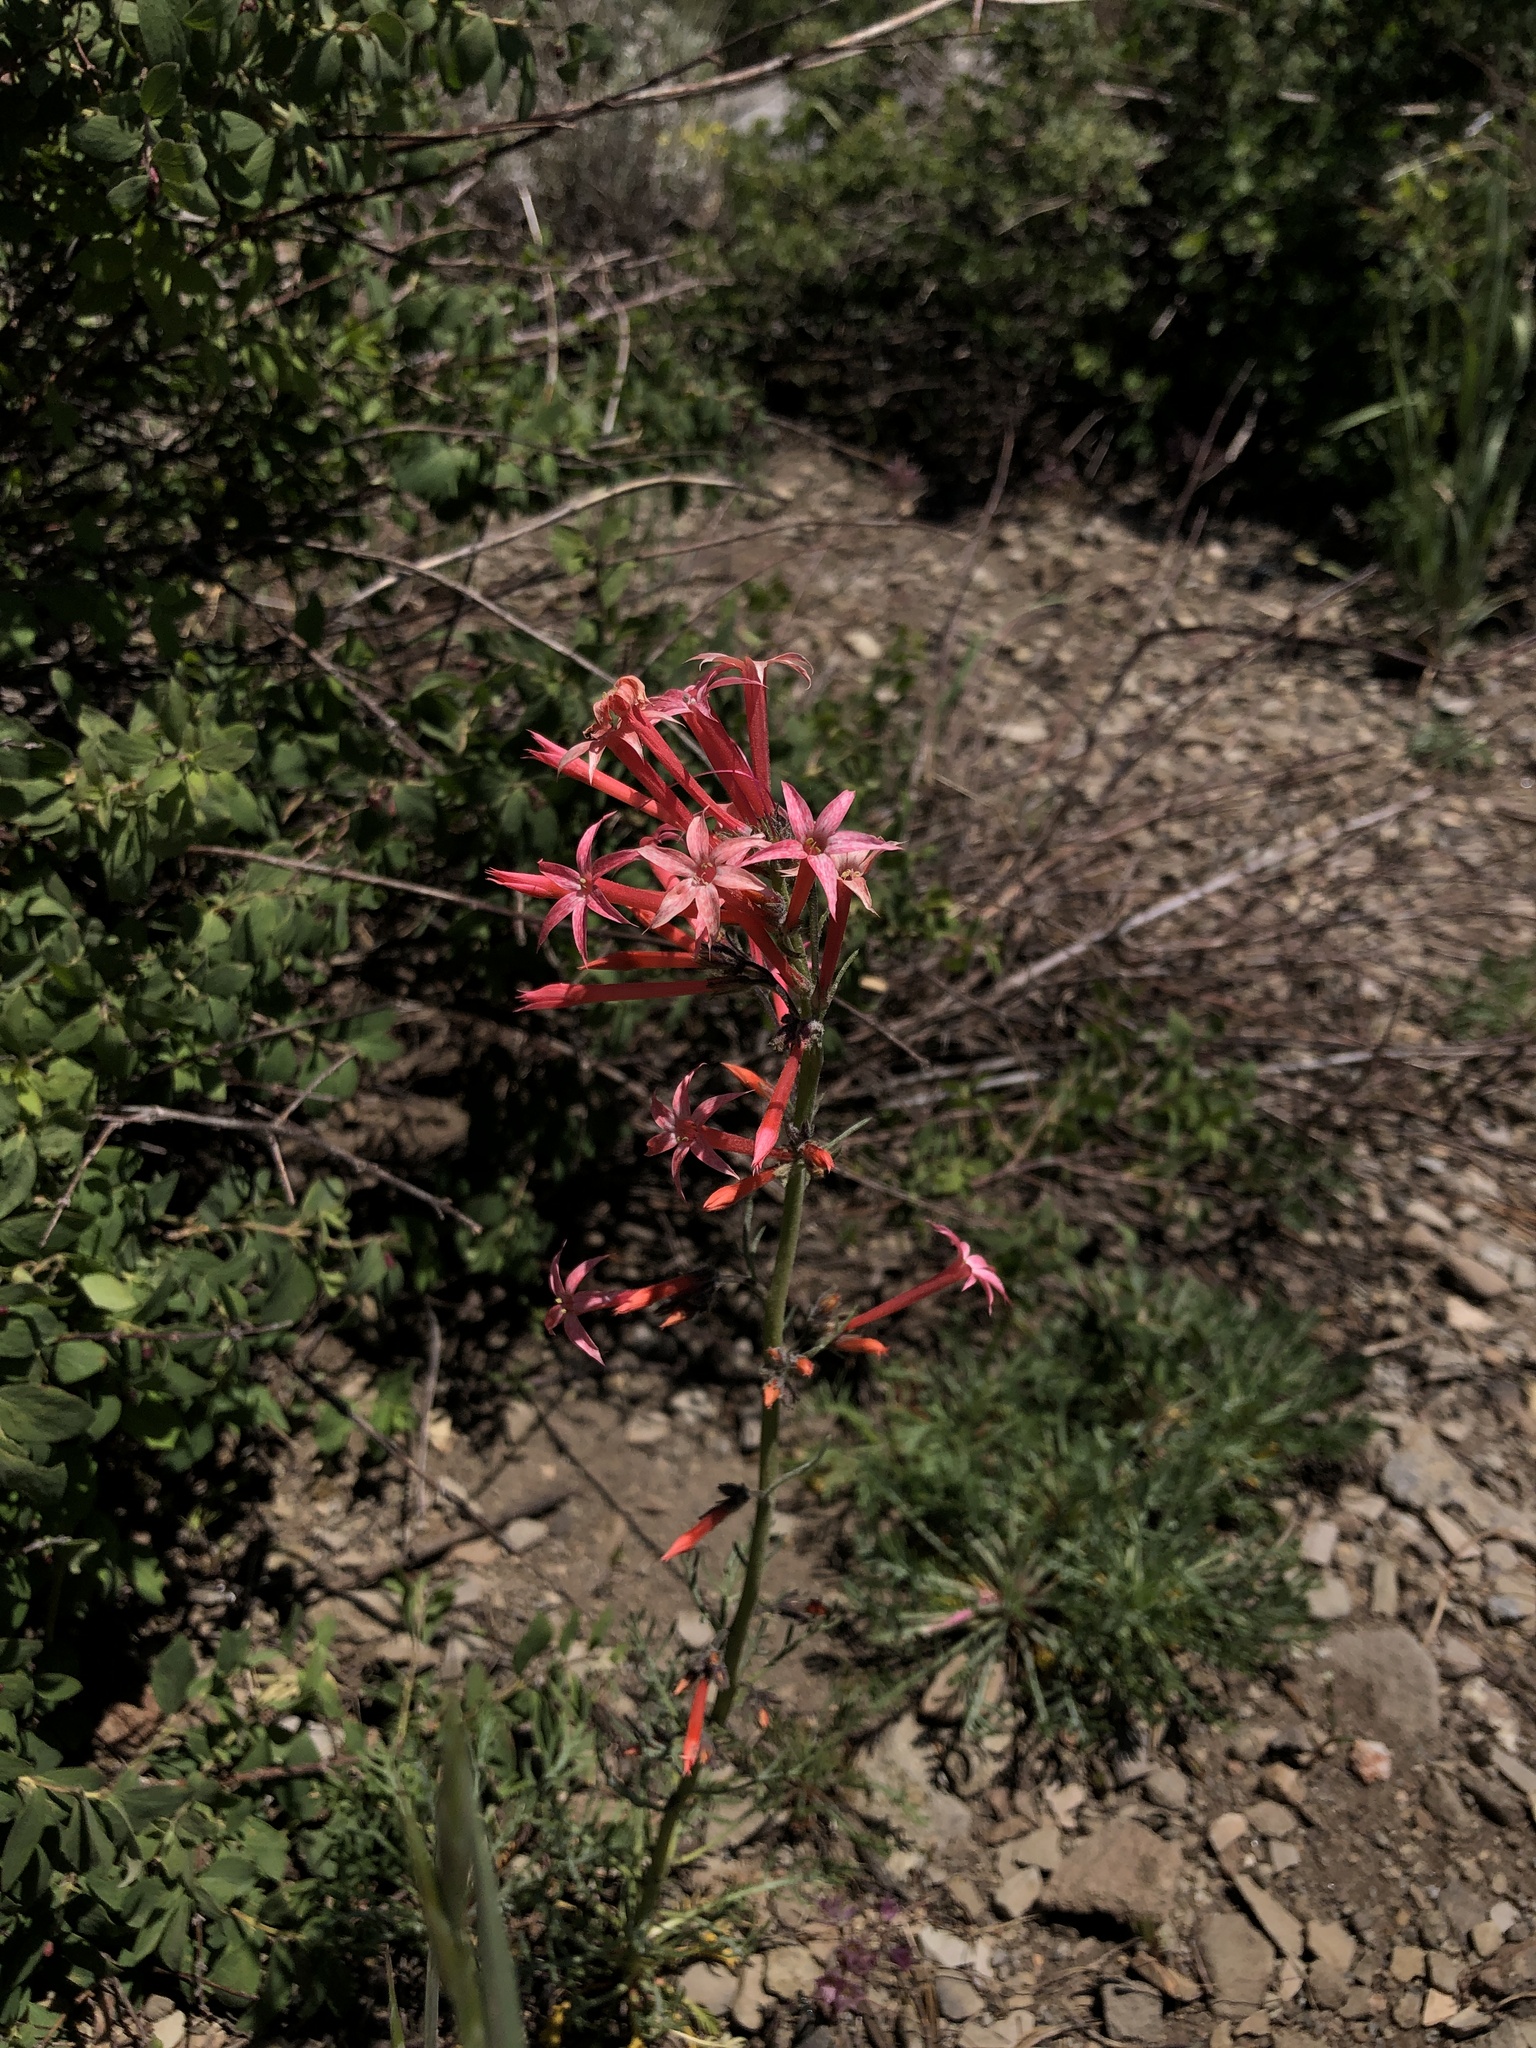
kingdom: Plantae
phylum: Tracheophyta
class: Magnoliopsida
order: Ericales
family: Polemoniaceae
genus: Ipomopsis
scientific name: Ipomopsis tenuituba
